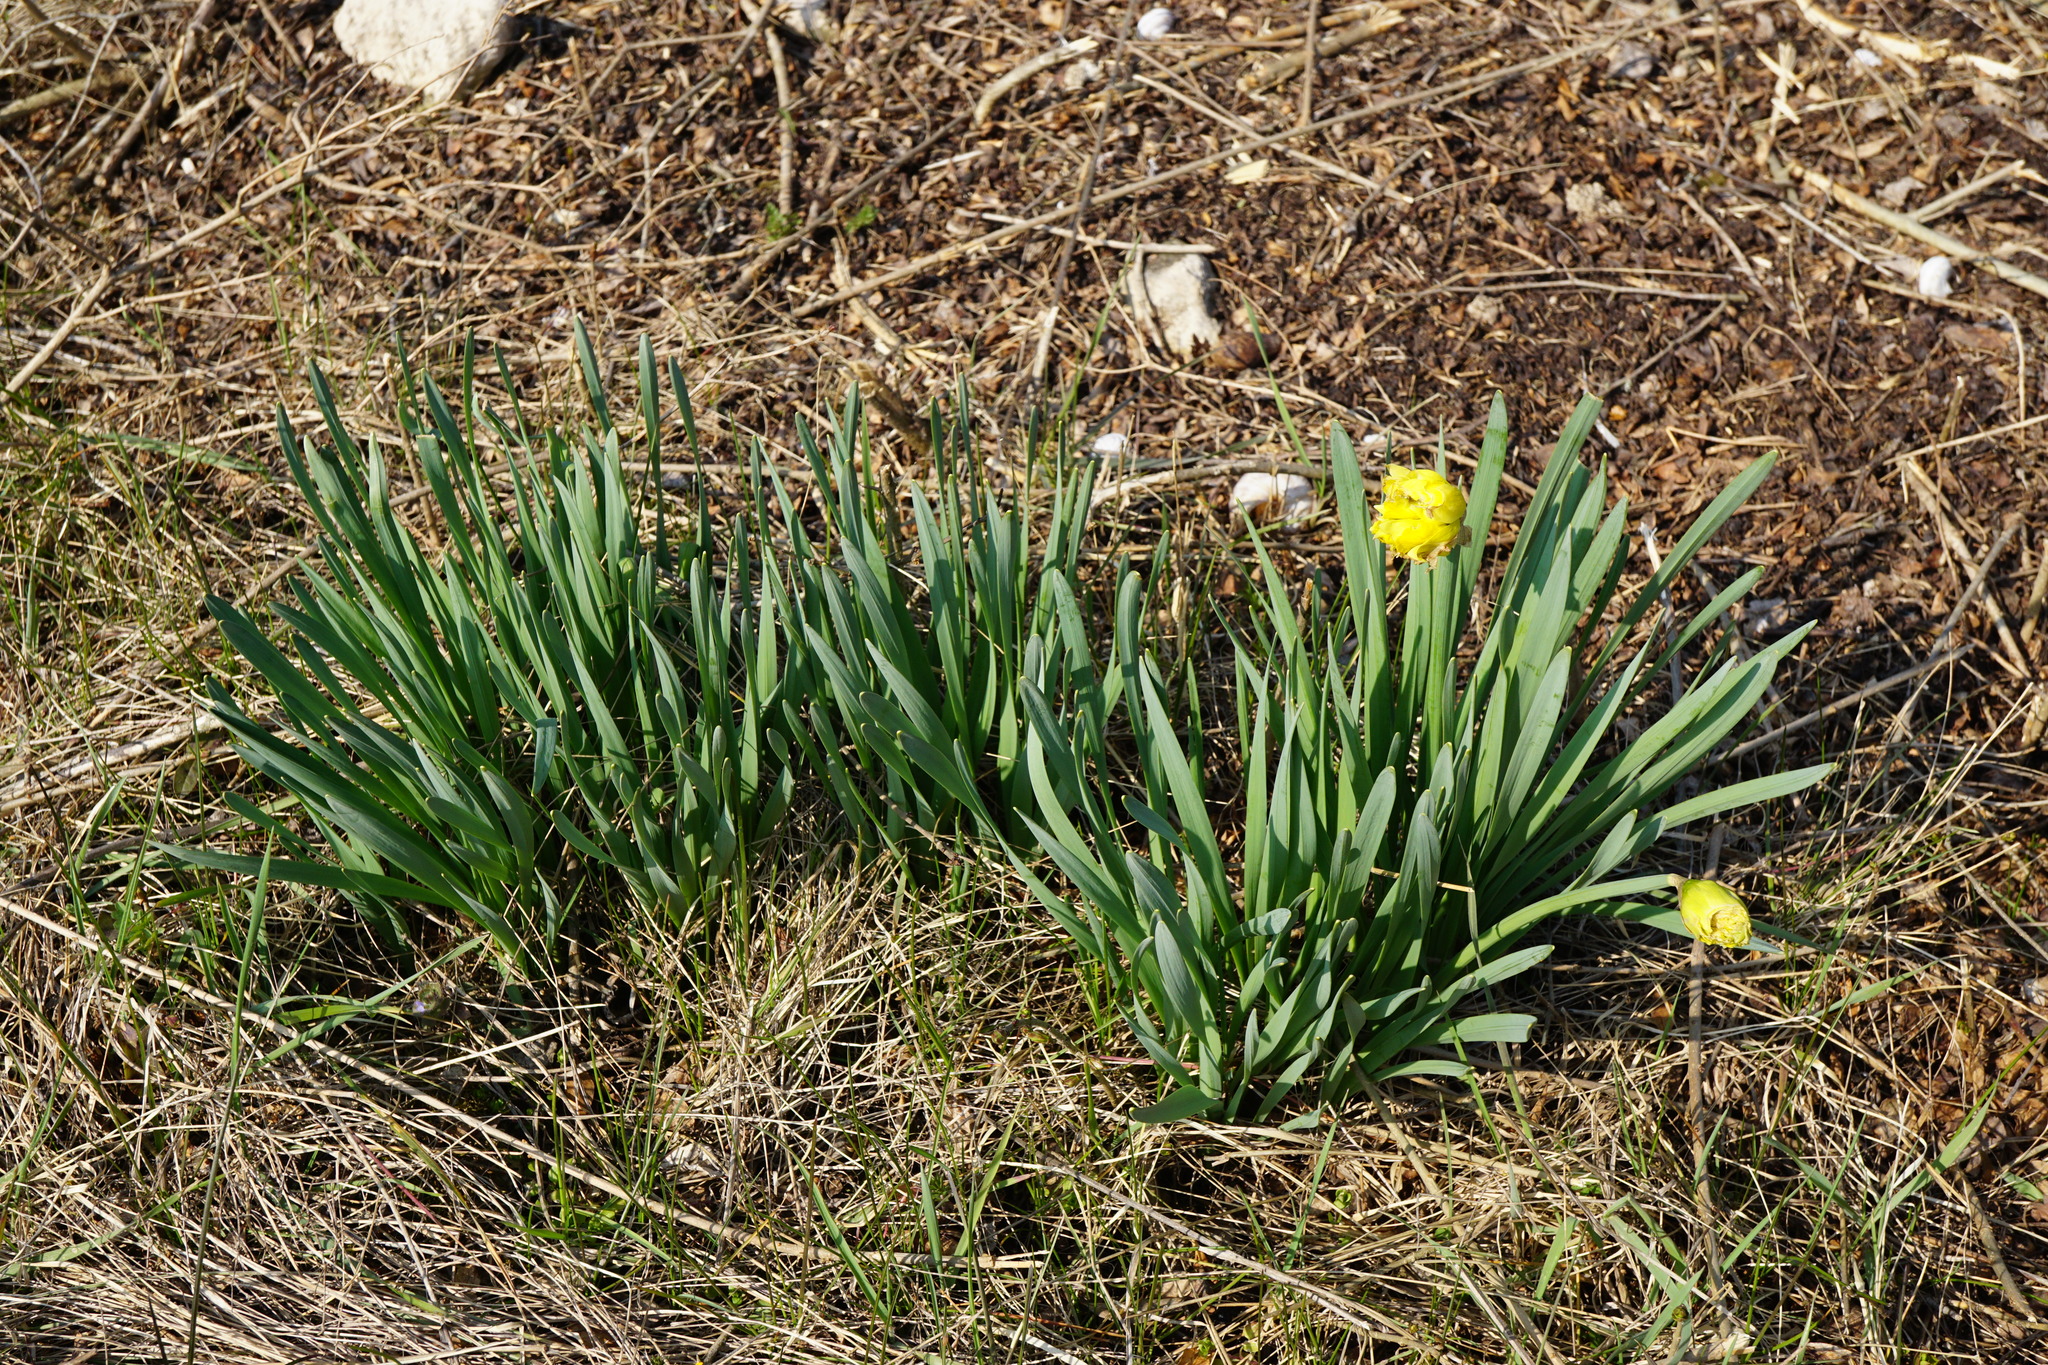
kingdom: Plantae
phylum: Tracheophyta
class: Liliopsida
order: Asparagales
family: Amaryllidaceae
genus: Narcissus
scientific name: Narcissus
